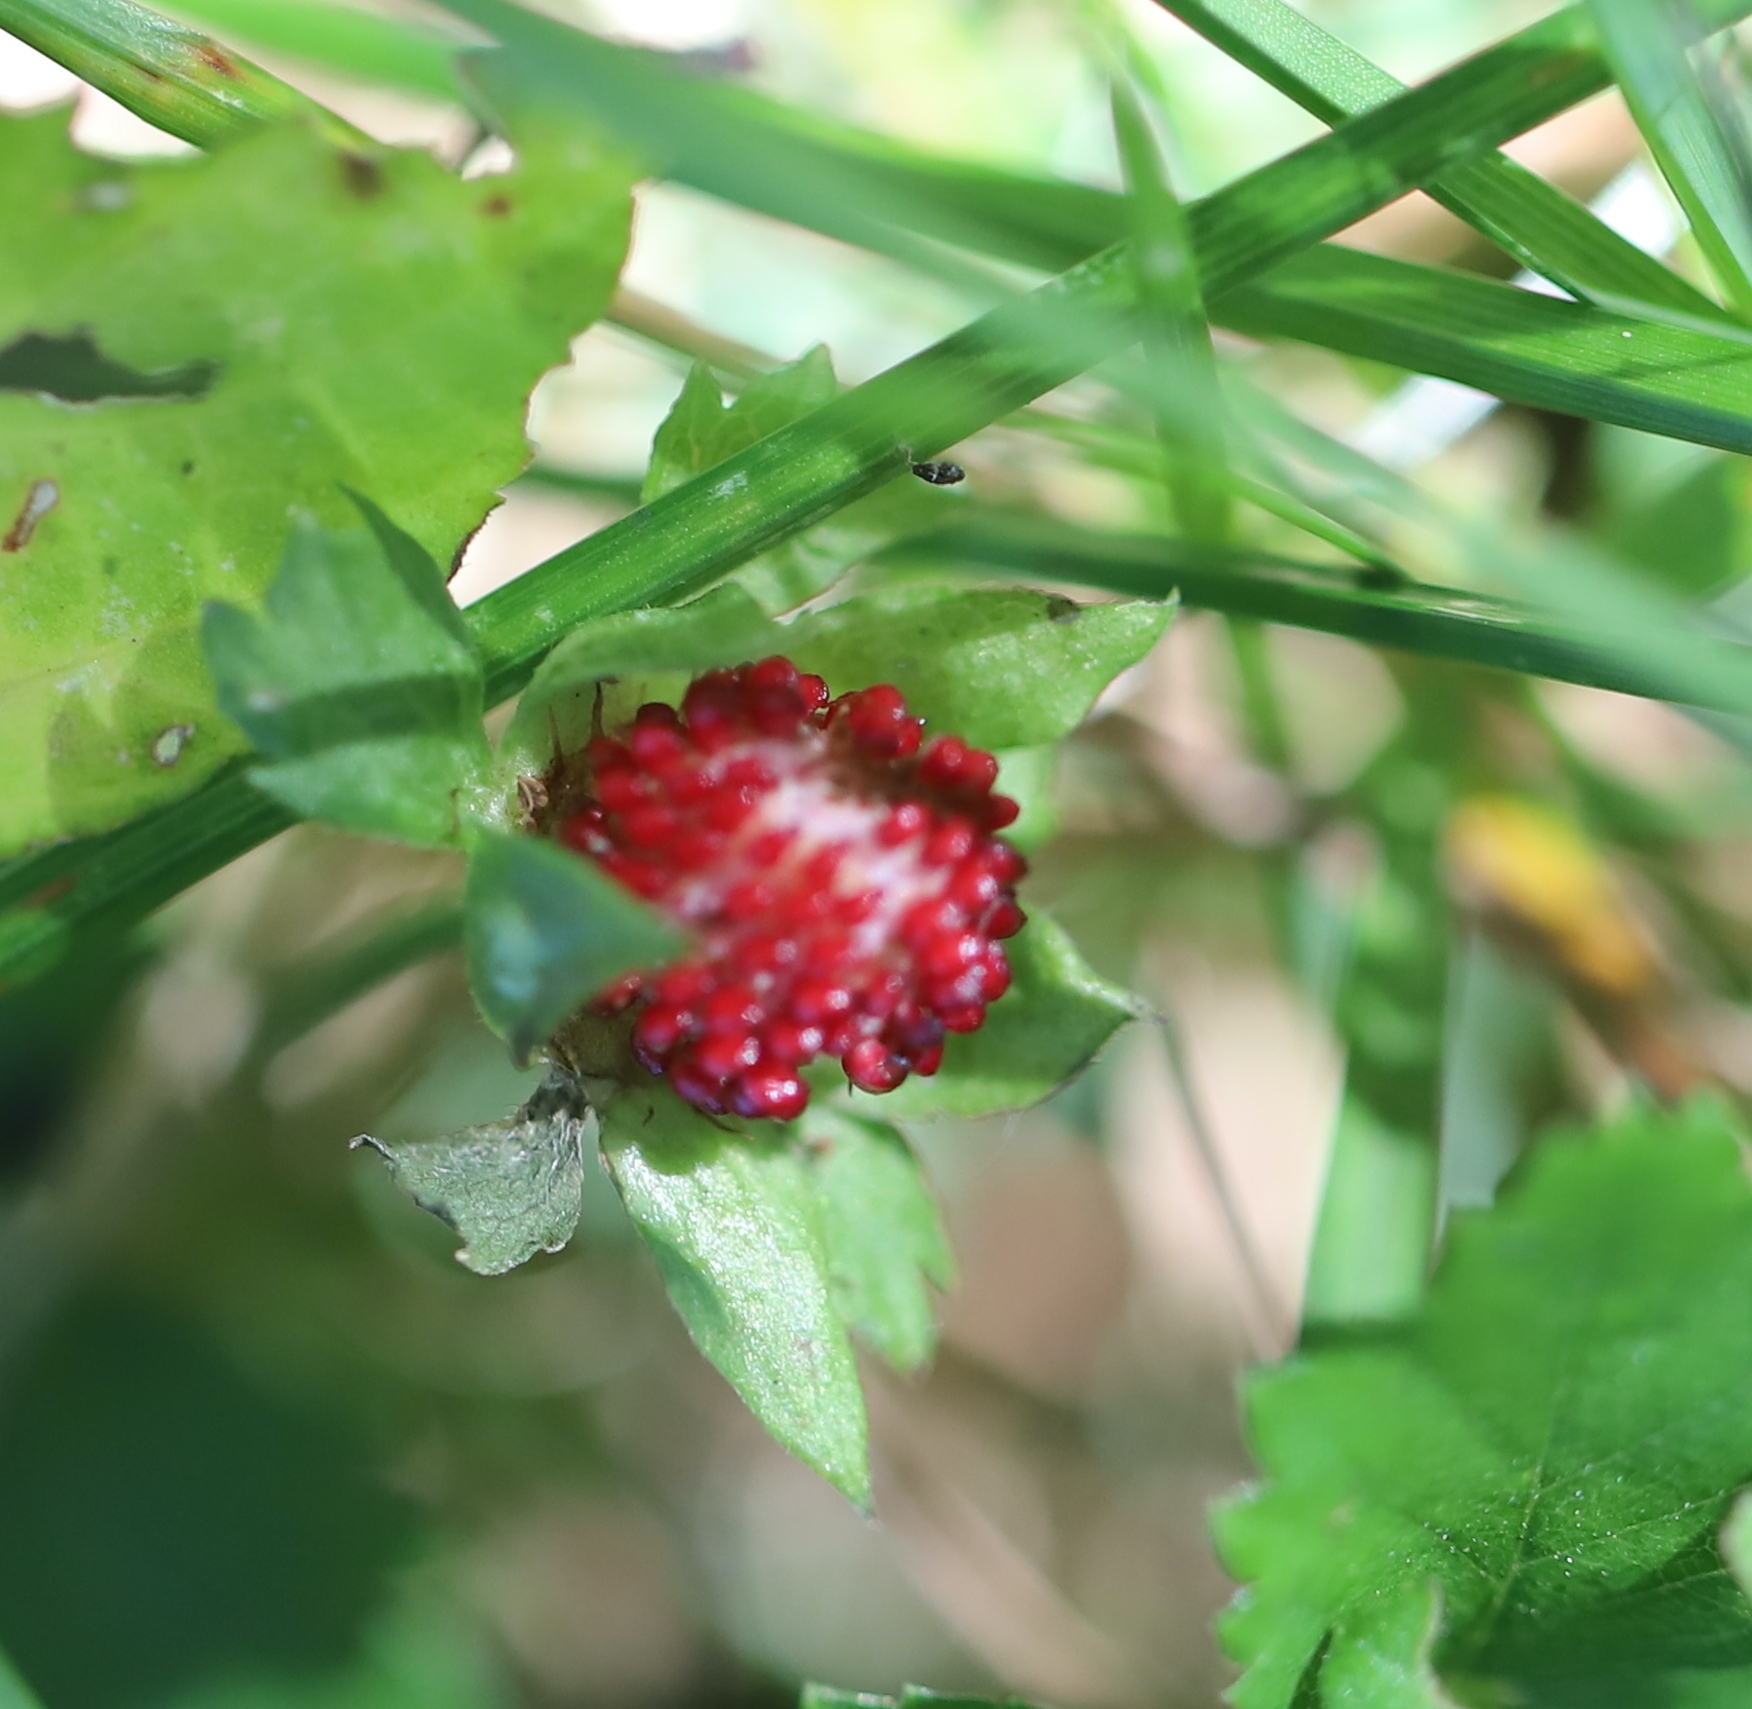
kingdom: Plantae
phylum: Tracheophyta
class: Magnoliopsida
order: Rosales
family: Rosaceae
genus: Potentilla
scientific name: Potentilla indica
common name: Yellow-flowered strawberry
